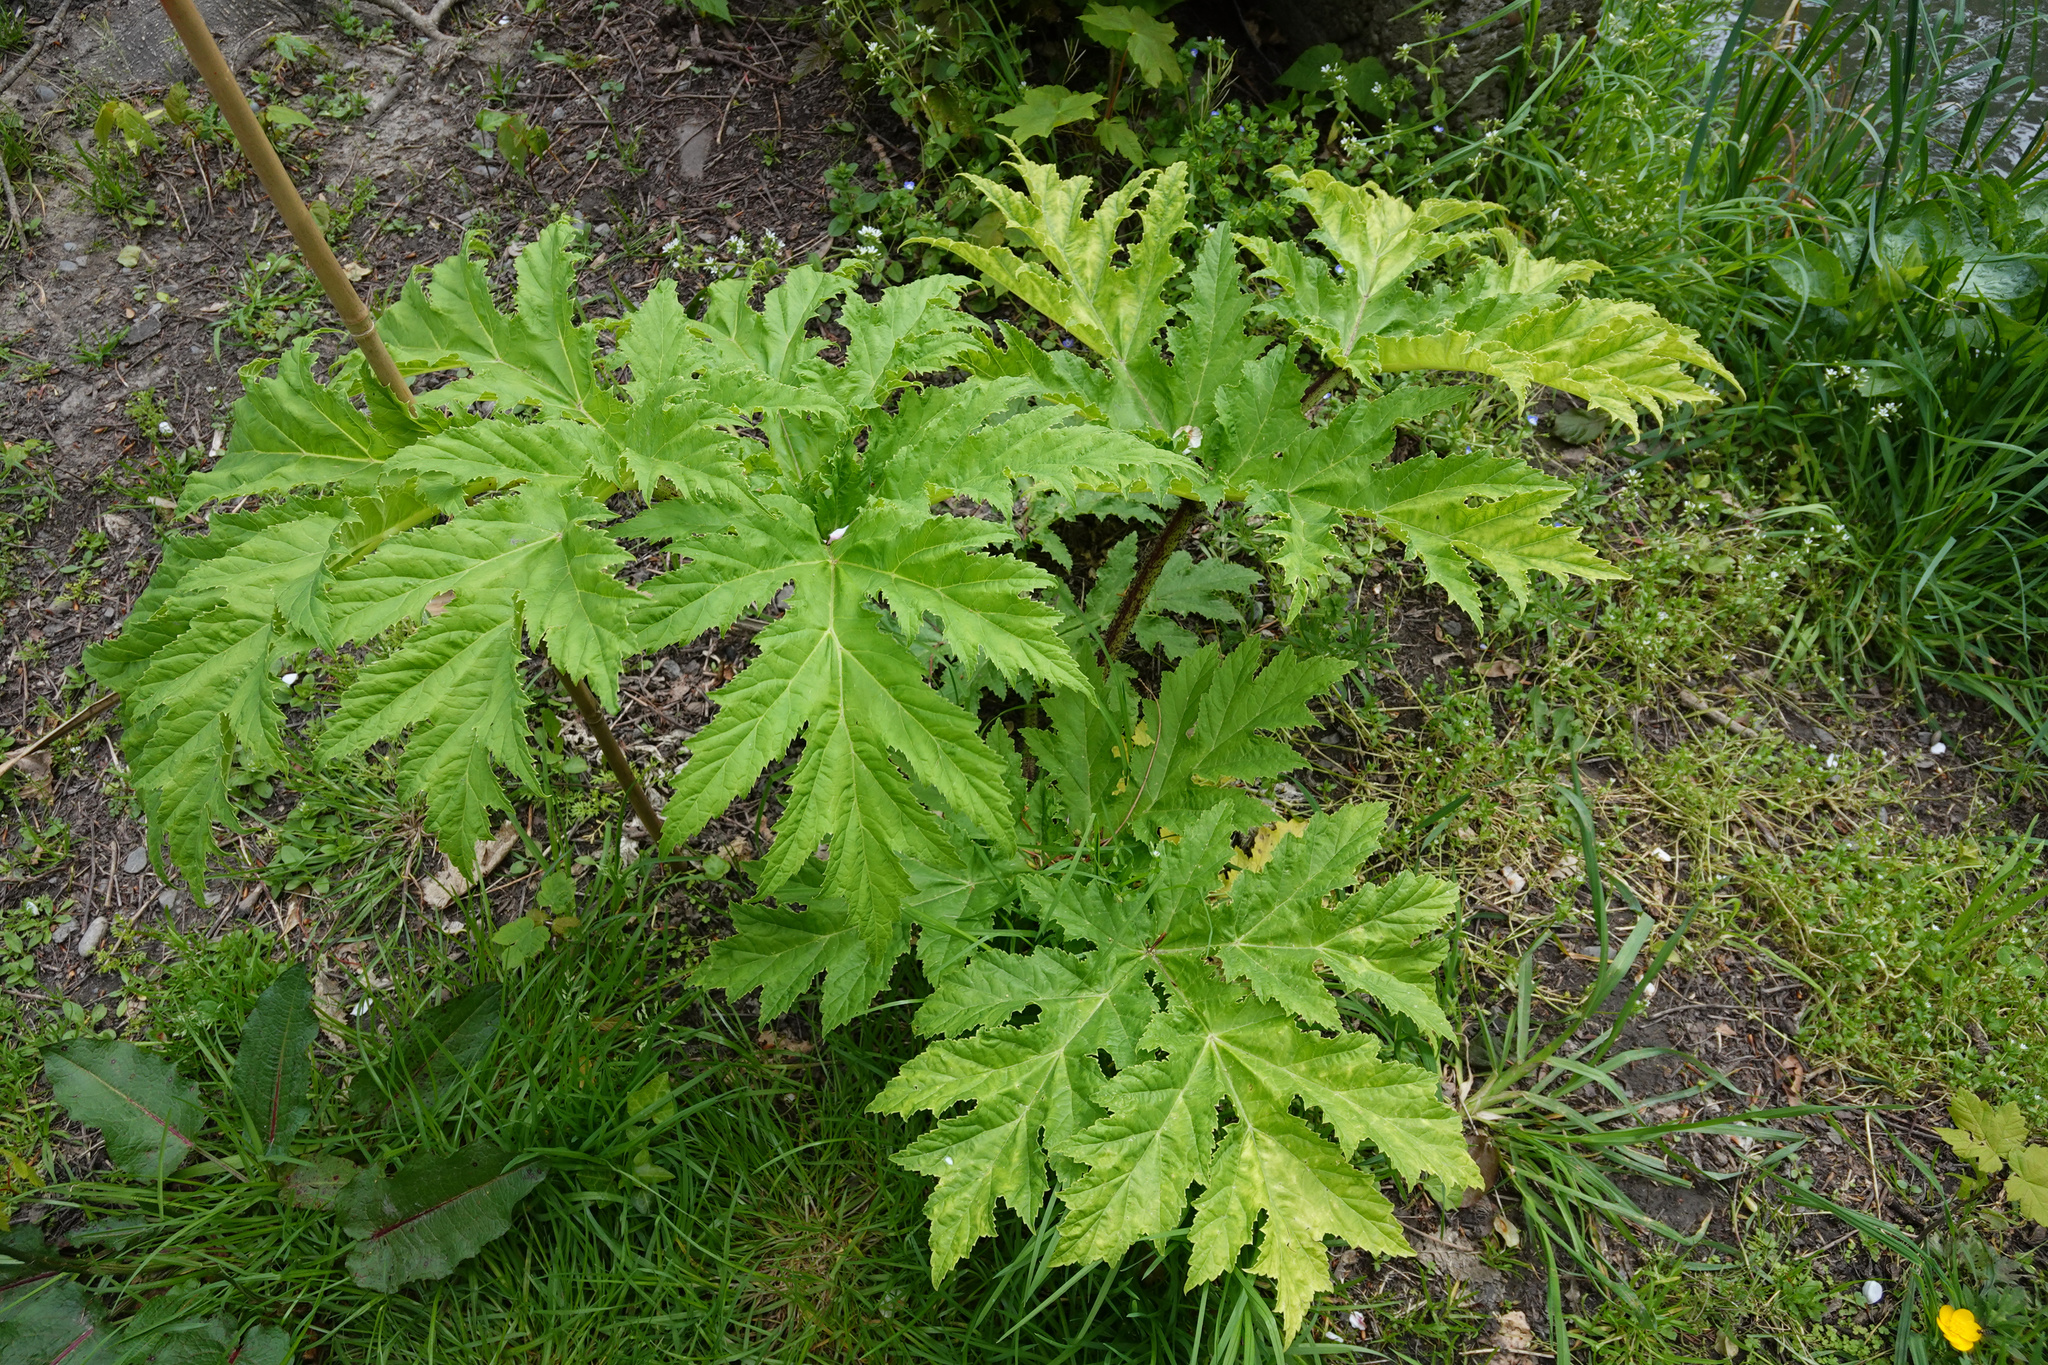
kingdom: Plantae
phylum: Tracheophyta
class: Magnoliopsida
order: Apiales
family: Apiaceae
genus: Heracleum
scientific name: Heracleum mantegazzianum
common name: Giant hogweed
